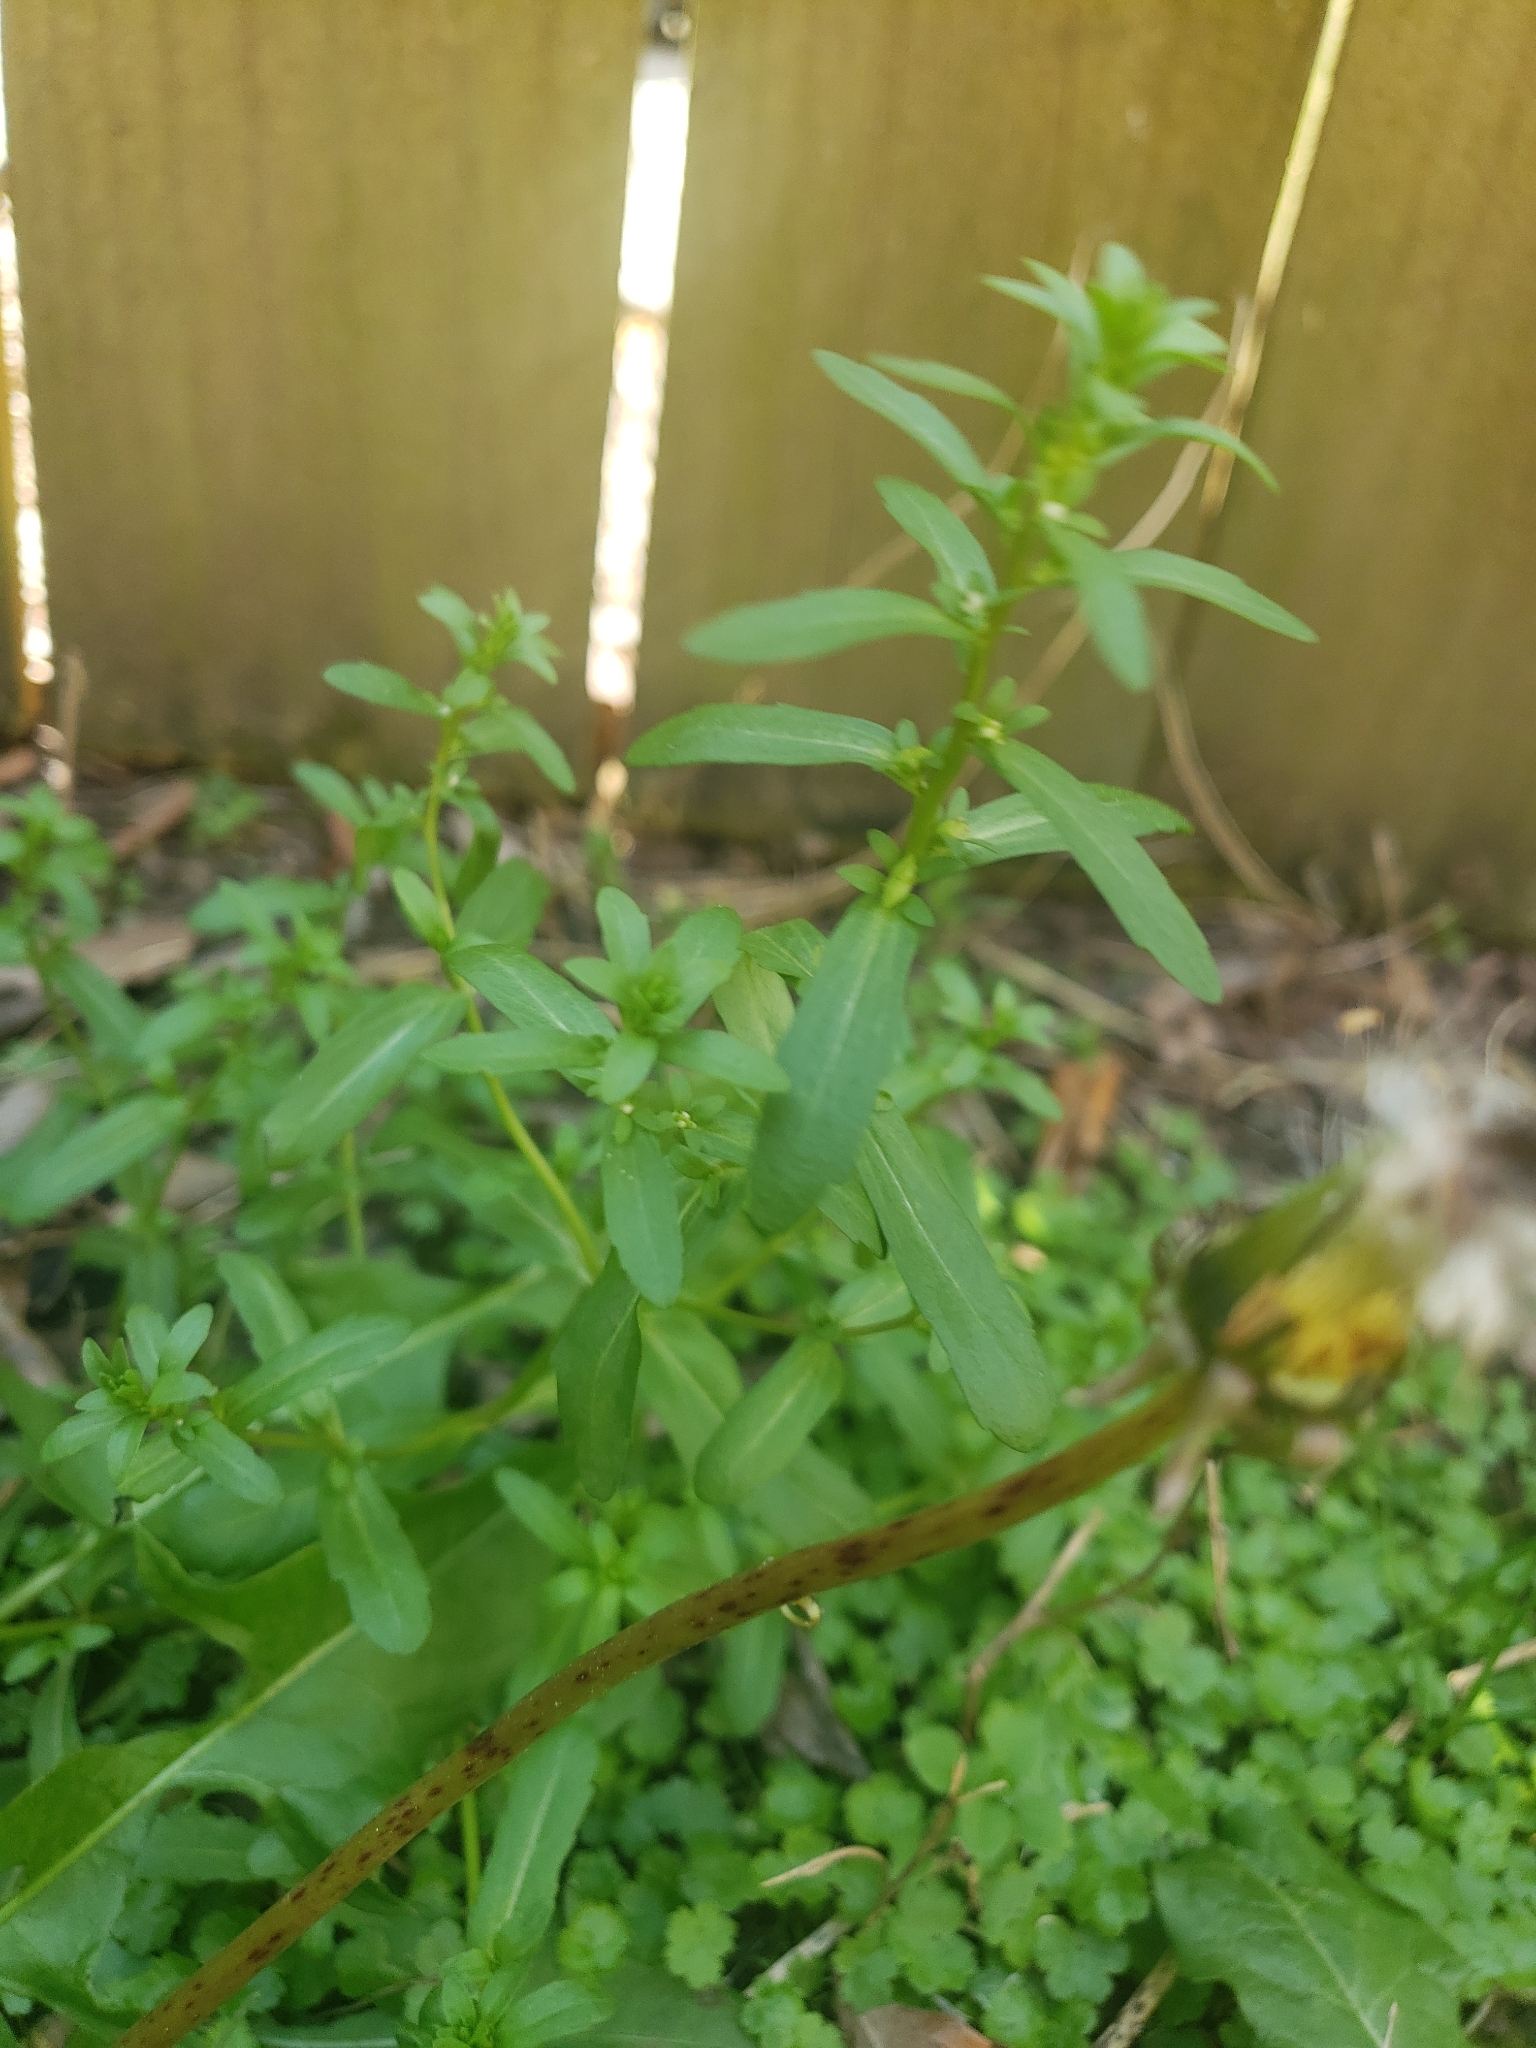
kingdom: Plantae
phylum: Tracheophyta
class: Magnoliopsida
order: Lamiales
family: Plantaginaceae
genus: Veronica
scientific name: Veronica peregrina
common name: Neckweed
